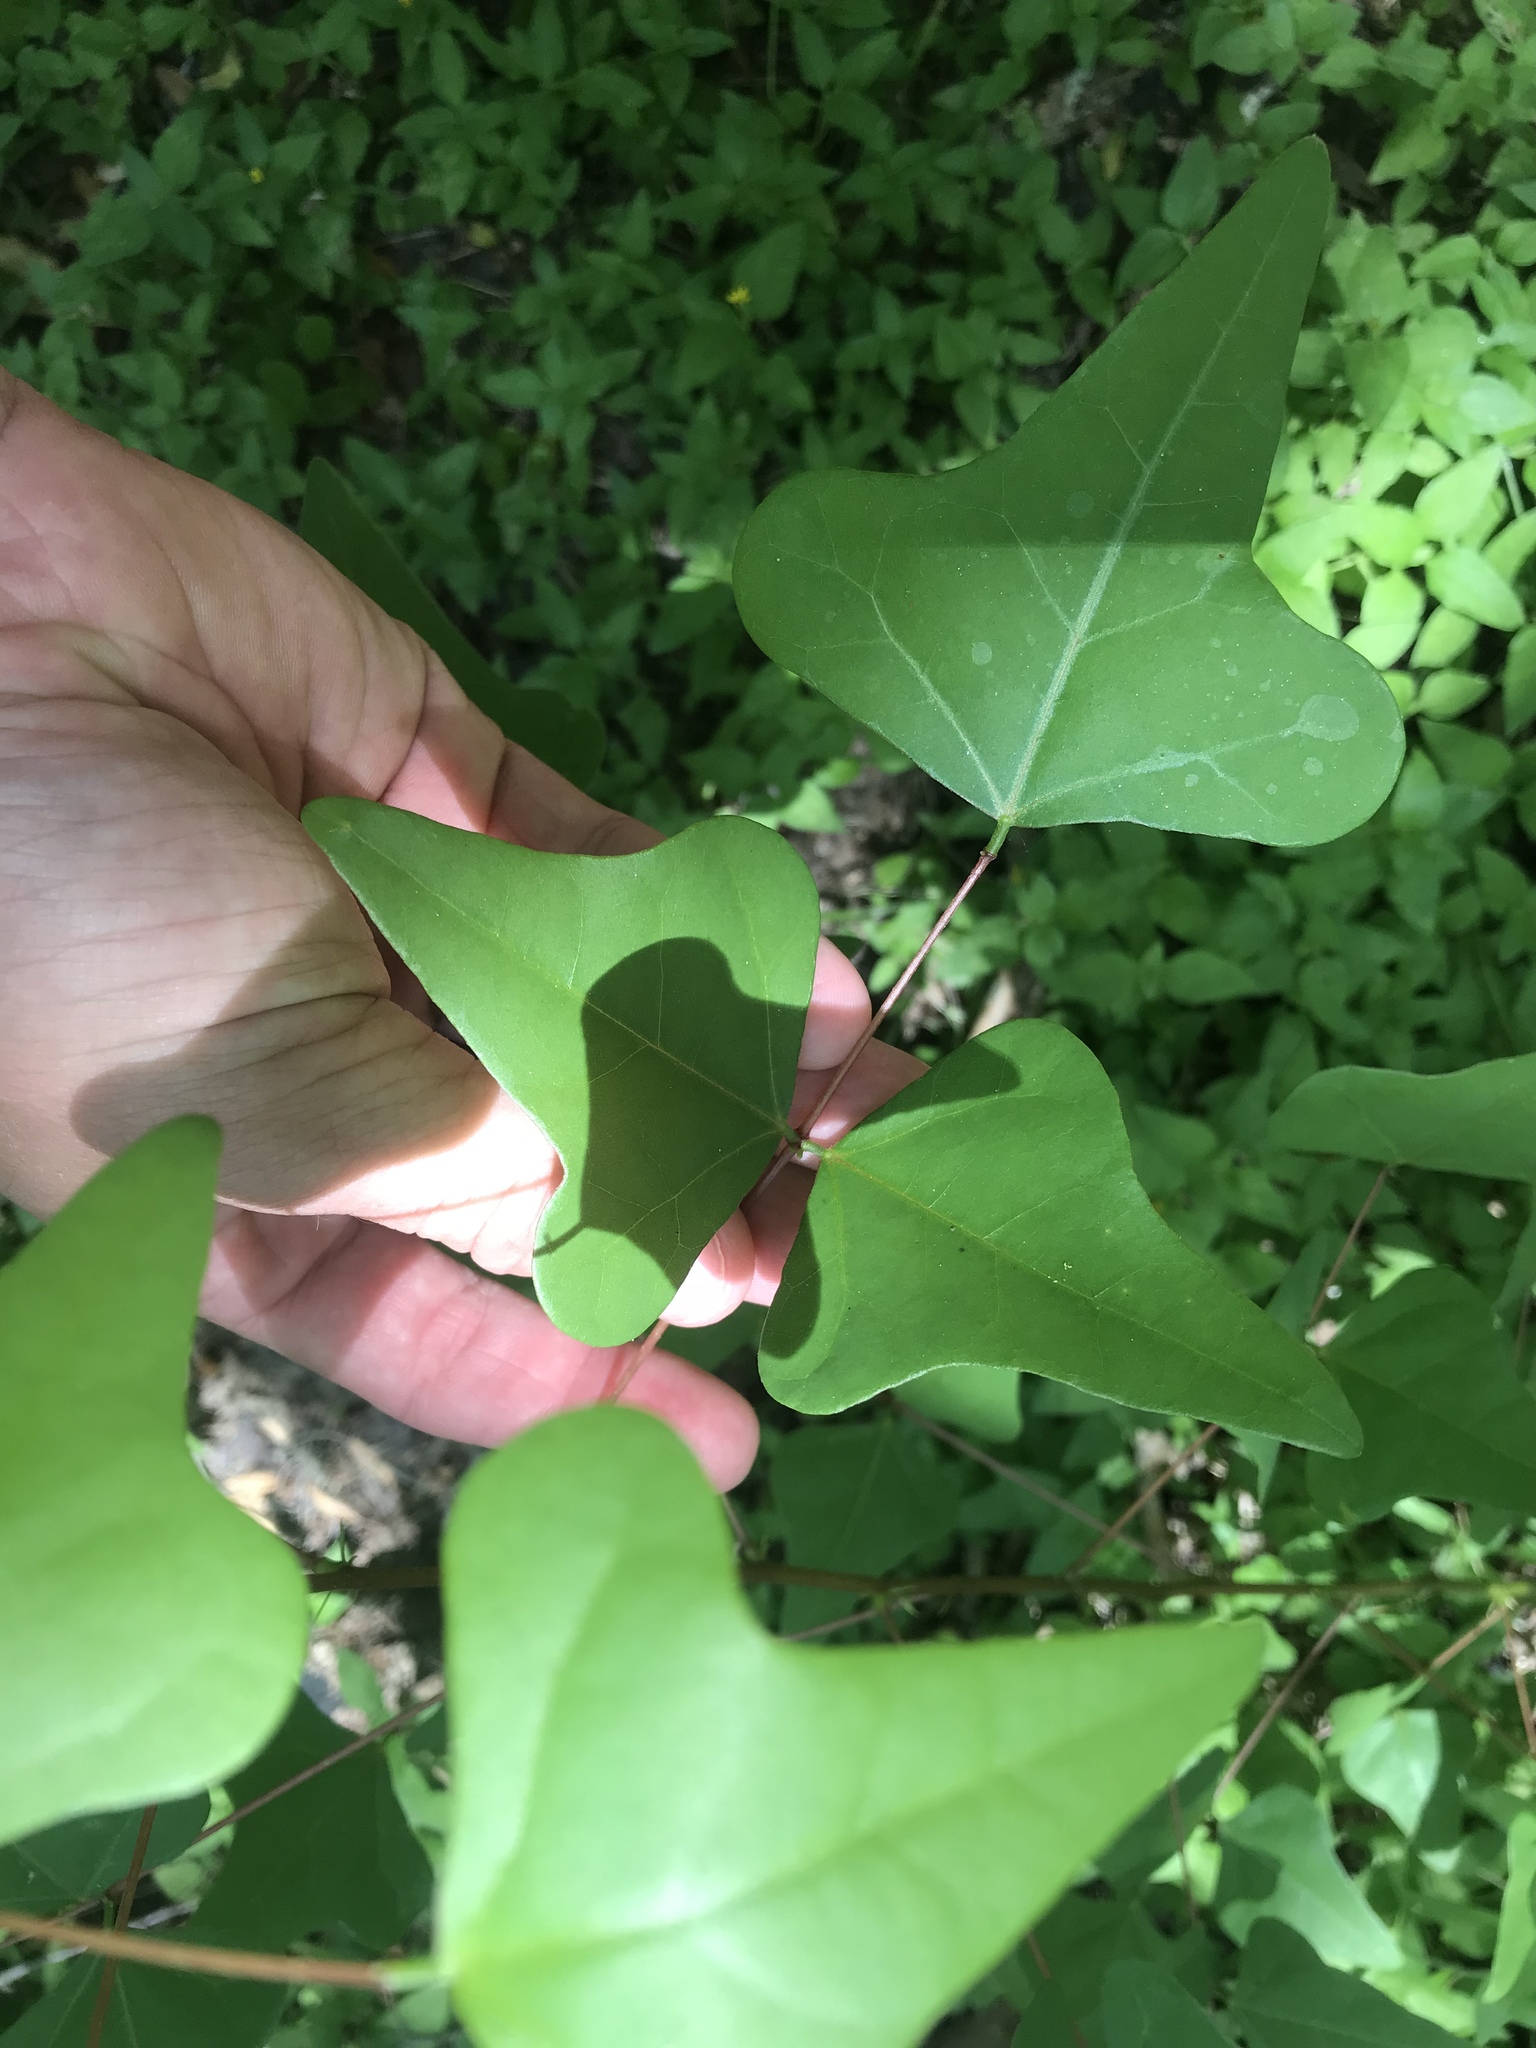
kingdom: Plantae
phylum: Tracheophyta
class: Magnoliopsida
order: Fabales
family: Fabaceae
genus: Erythrina
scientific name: Erythrina herbacea
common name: Coral-bean
